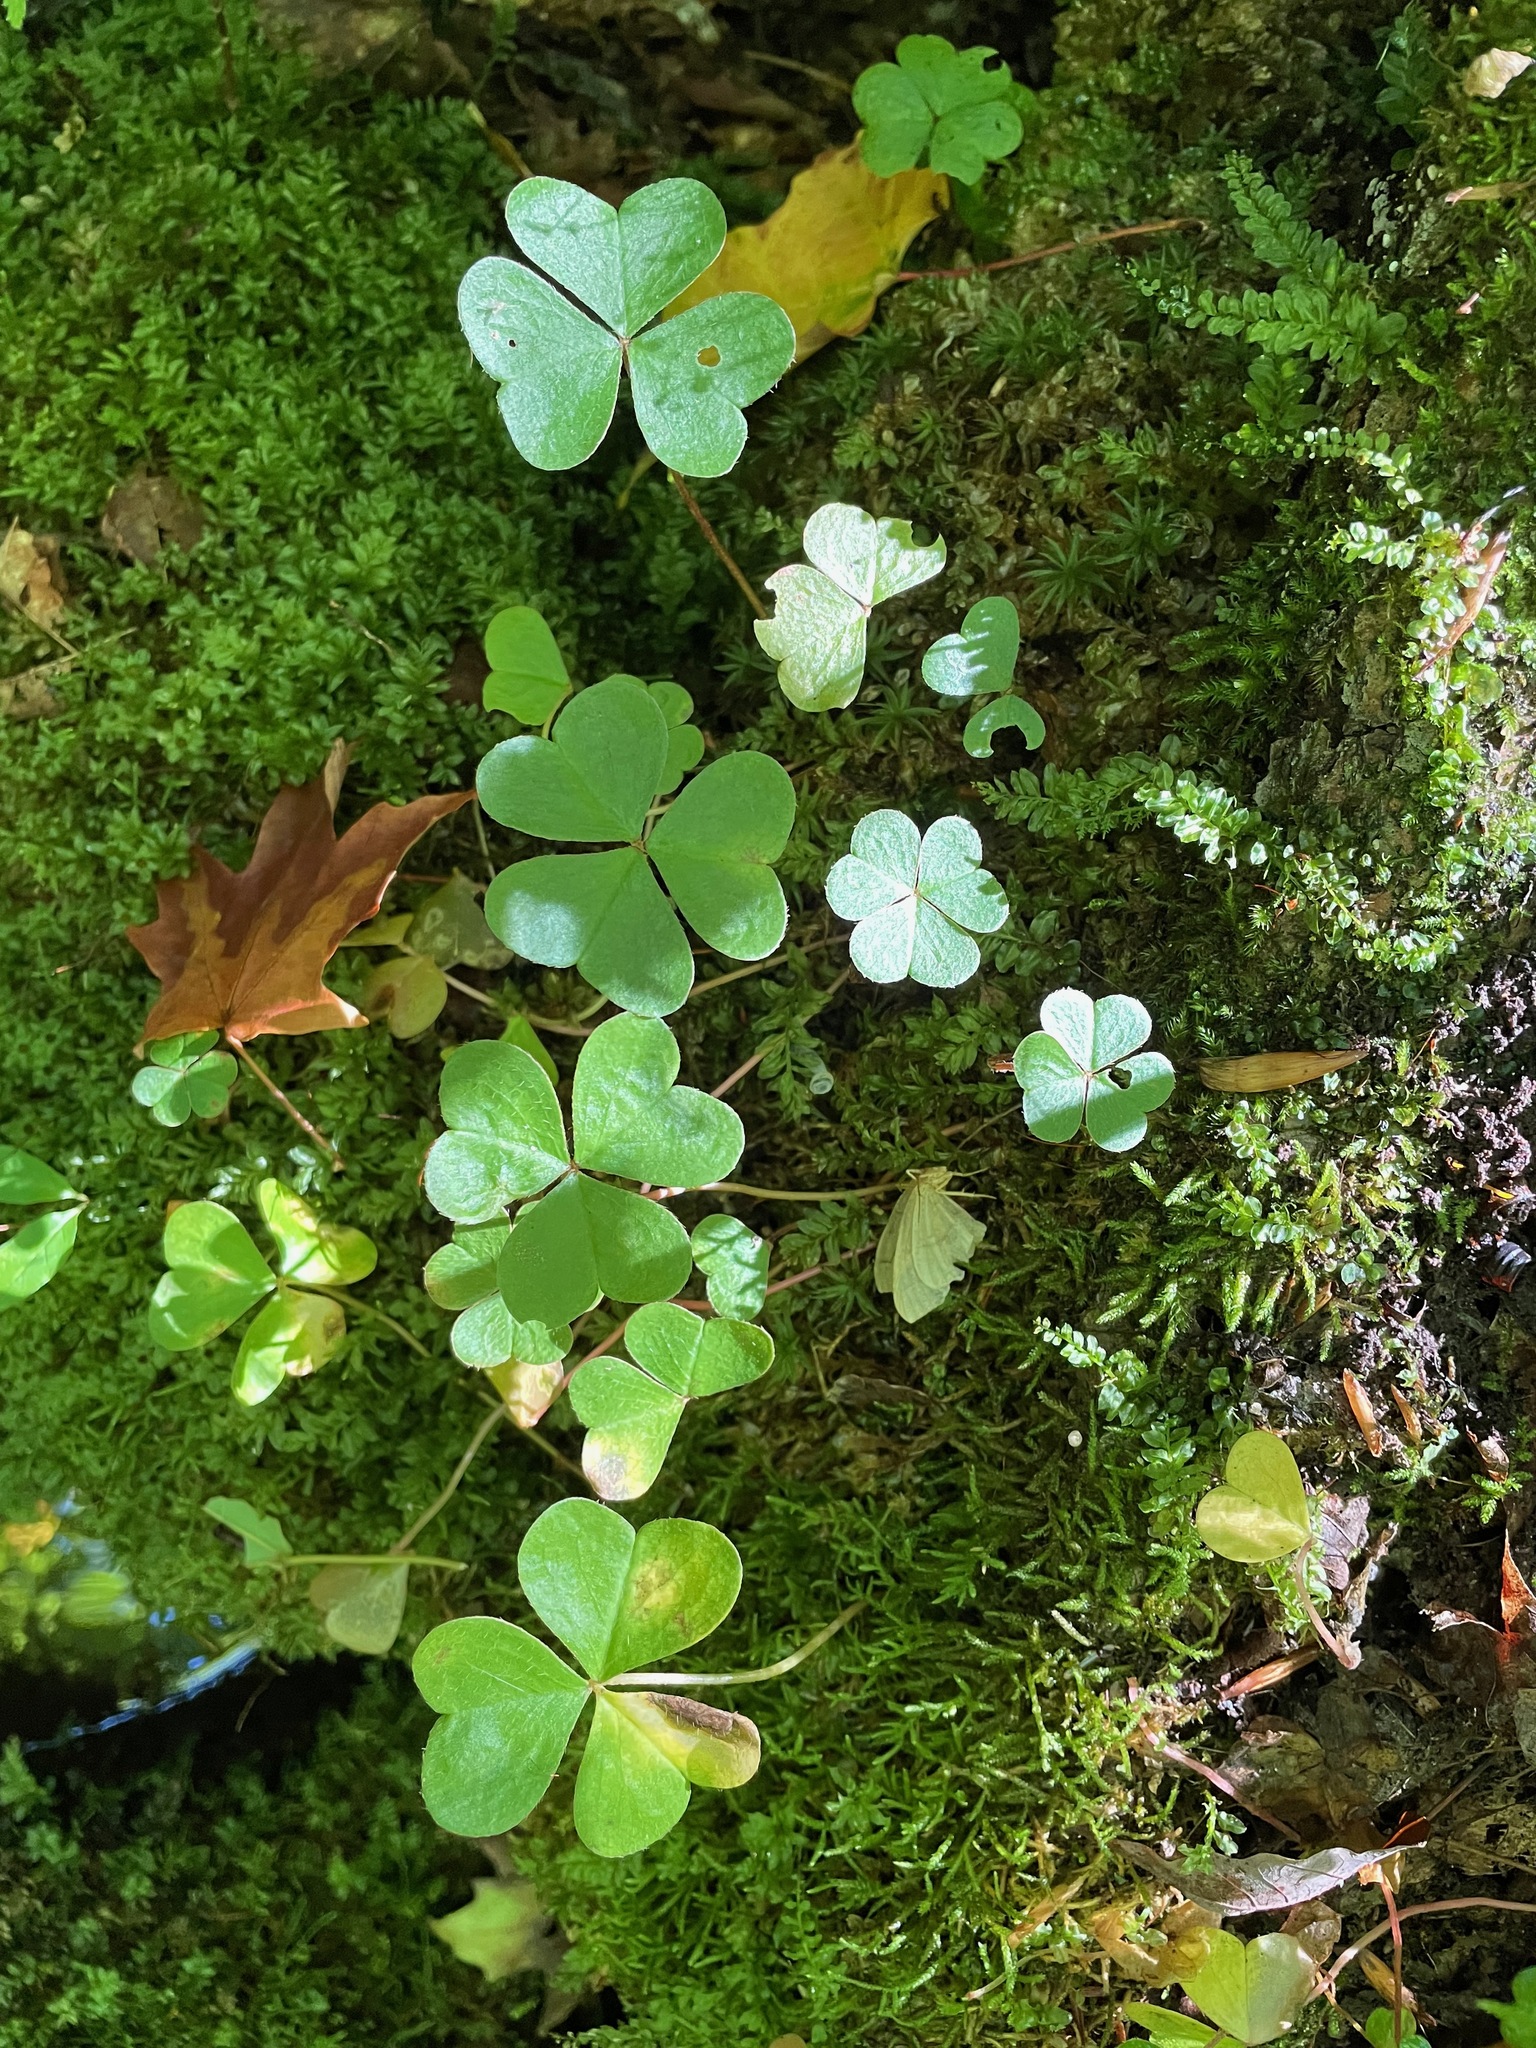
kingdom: Plantae
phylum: Tracheophyta
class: Magnoliopsida
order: Oxalidales
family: Oxalidaceae
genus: Oxalis
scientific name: Oxalis montana
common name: American wood-sorrel
